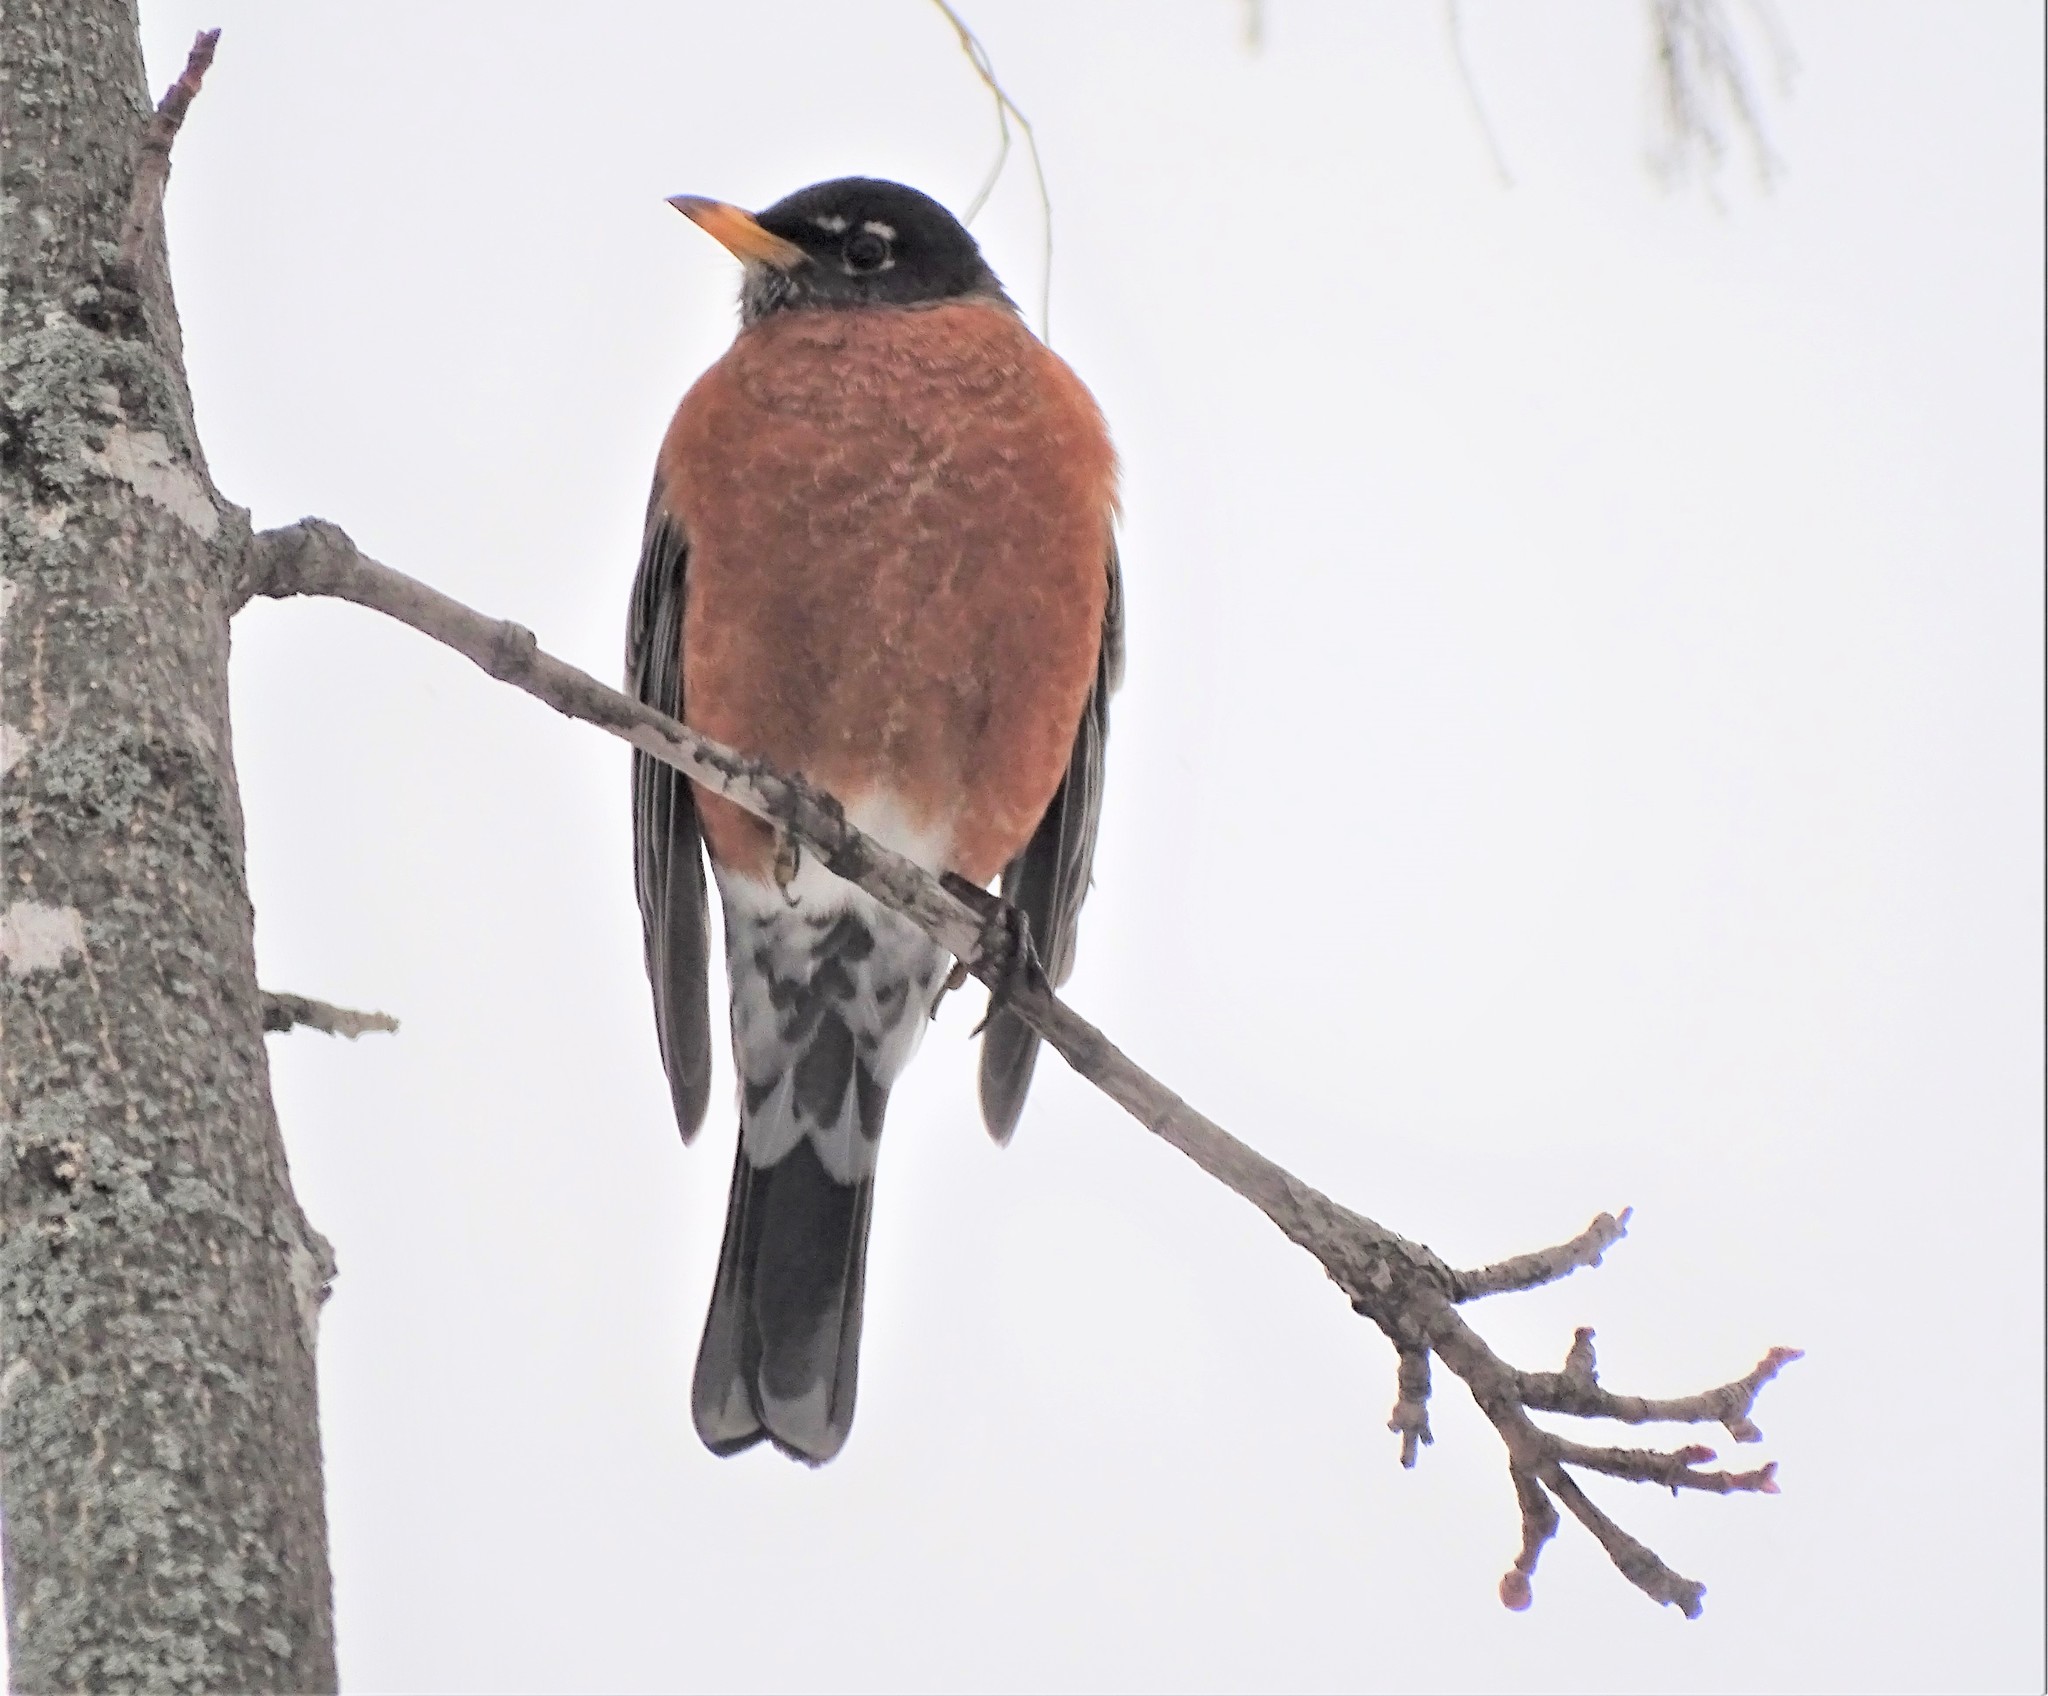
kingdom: Animalia
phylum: Chordata
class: Aves
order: Passeriformes
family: Turdidae
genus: Turdus
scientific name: Turdus migratorius
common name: American robin
